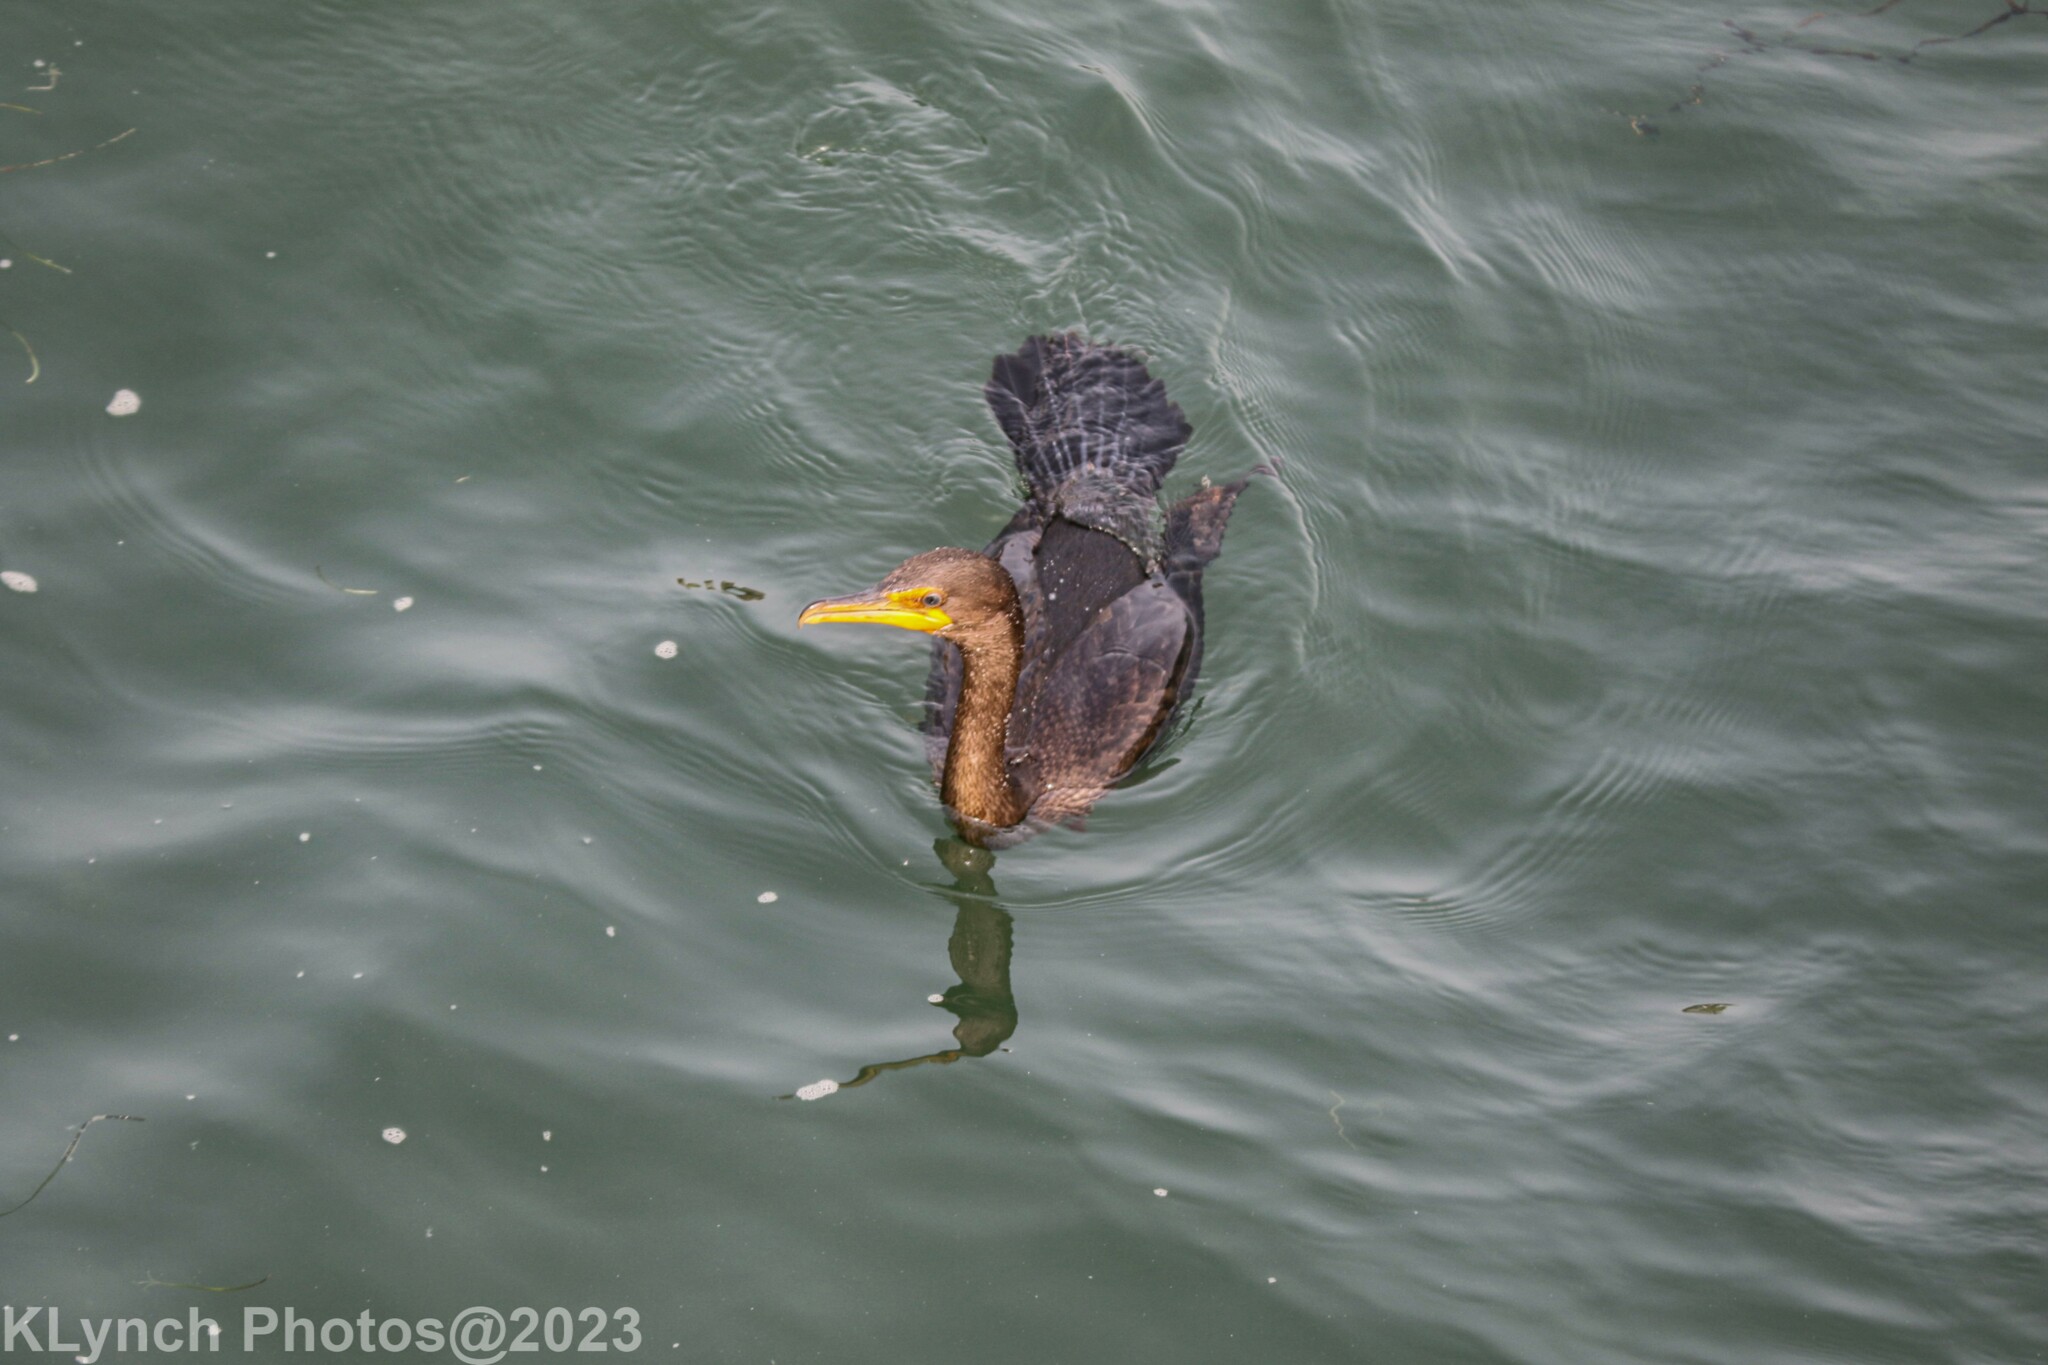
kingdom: Animalia
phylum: Chordata
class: Aves
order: Suliformes
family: Phalacrocoracidae
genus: Phalacrocorax
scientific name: Phalacrocorax auritus
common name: Double-crested cormorant
